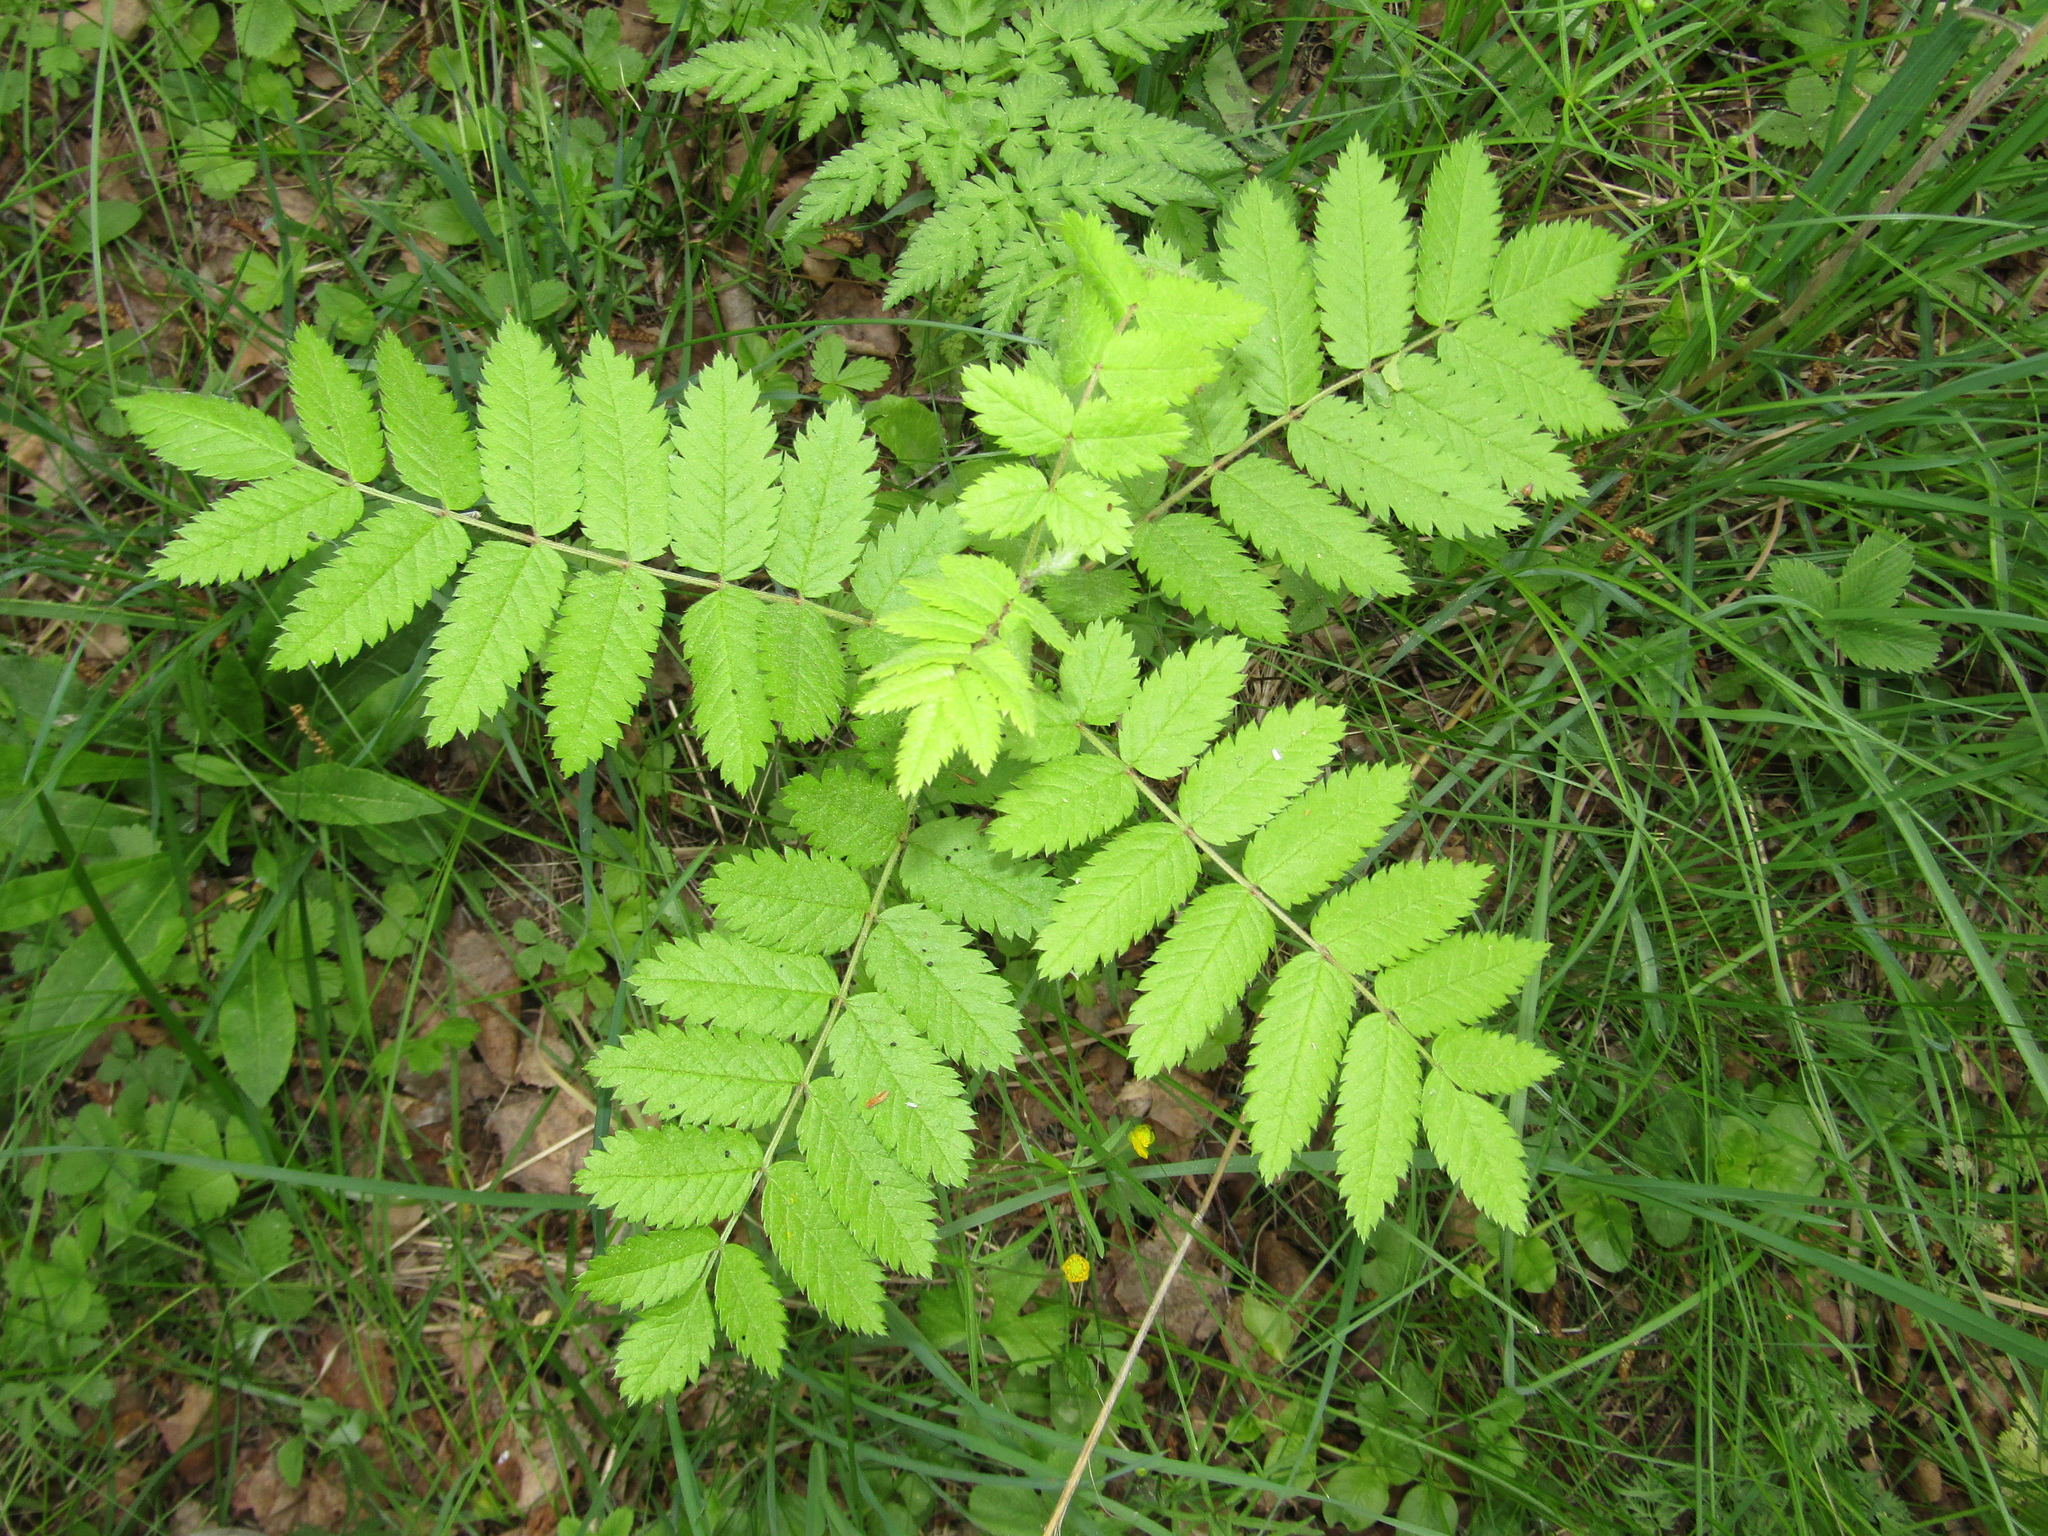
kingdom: Plantae
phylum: Tracheophyta
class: Magnoliopsida
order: Rosales
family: Rosaceae
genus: Sorbus
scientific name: Sorbus aucuparia
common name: Rowan
